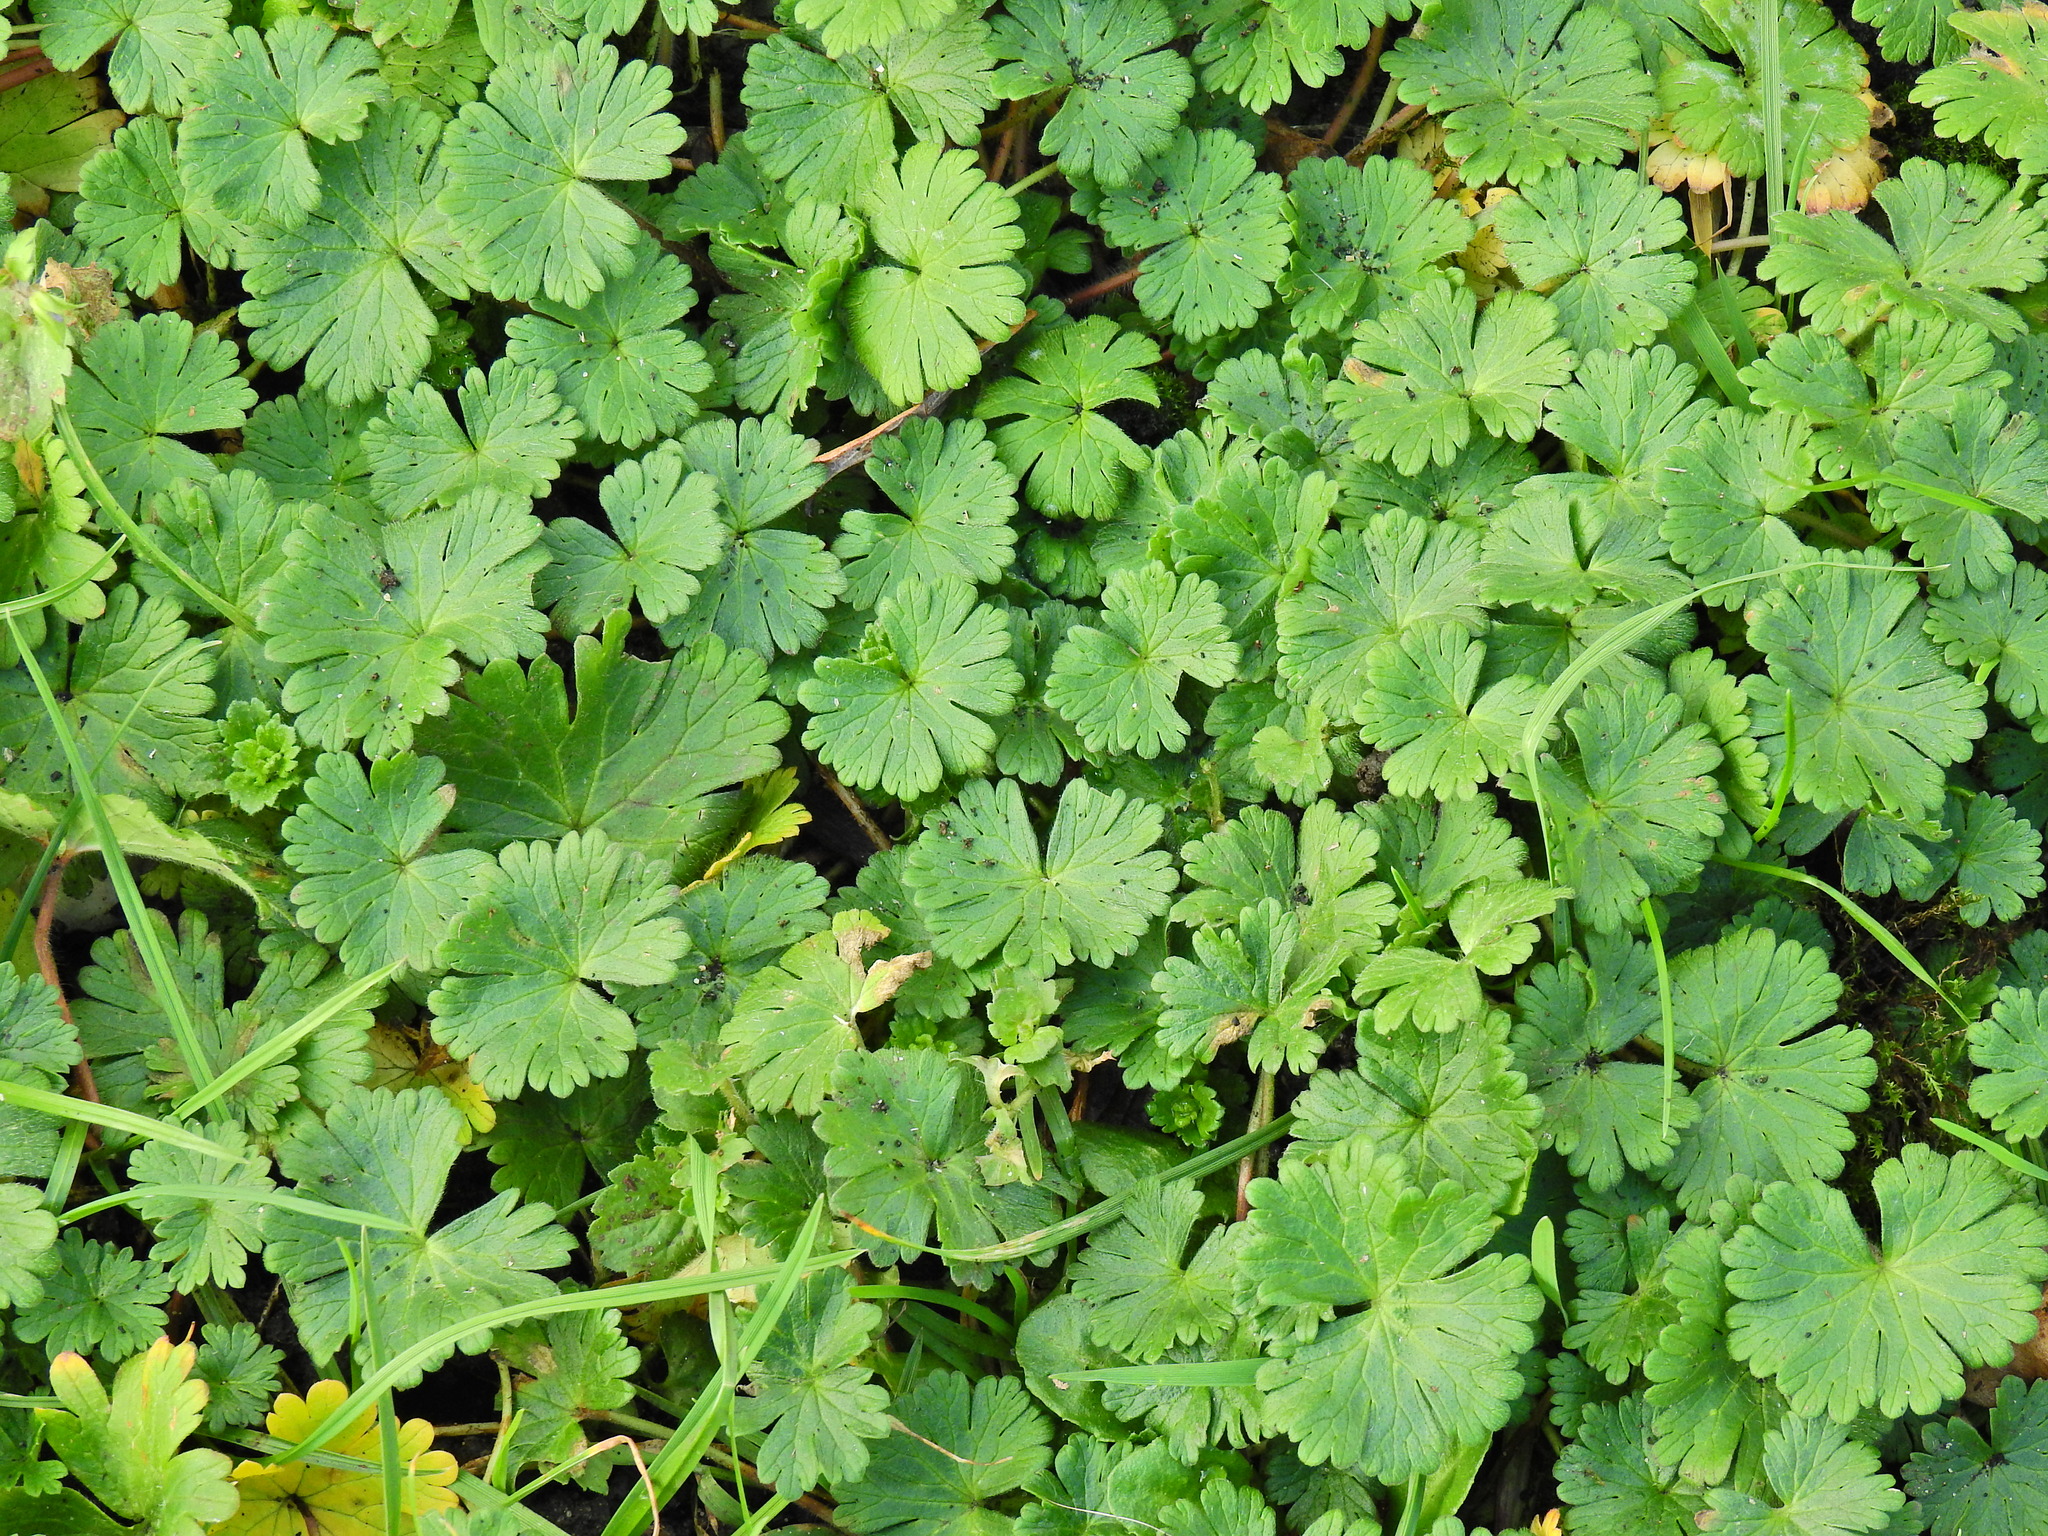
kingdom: Plantae
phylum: Tracheophyta
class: Magnoliopsida
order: Geraniales
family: Geraniaceae
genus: Geranium
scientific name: Geranium molle
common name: Dove's-foot crane's-bill
